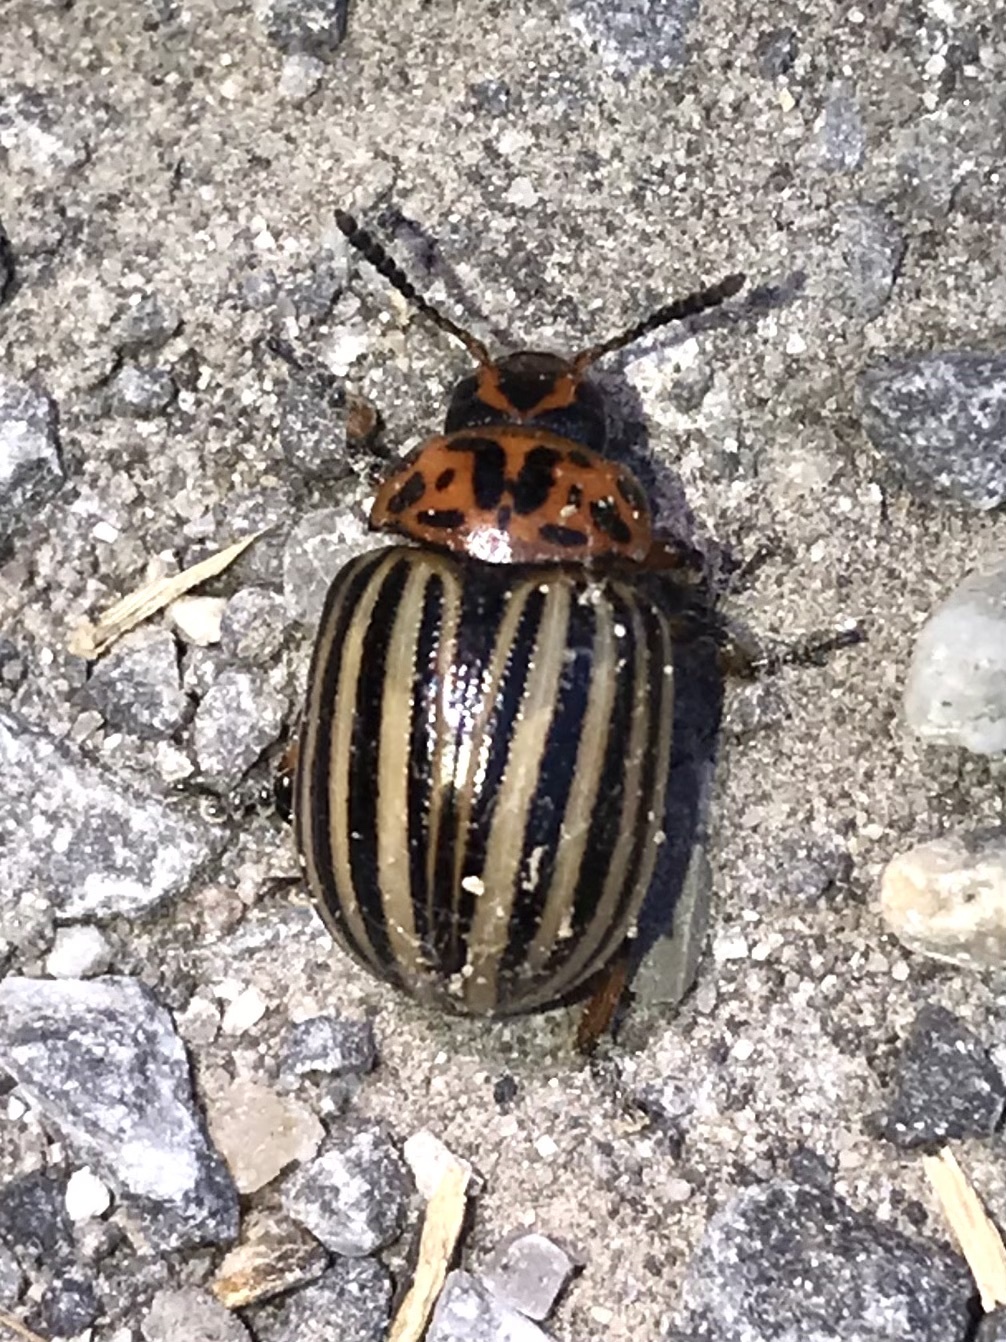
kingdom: Animalia
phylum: Arthropoda
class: Insecta
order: Coleoptera
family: Chrysomelidae
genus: Leptinotarsa
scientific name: Leptinotarsa decemlineata
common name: Colorado potato beetle
